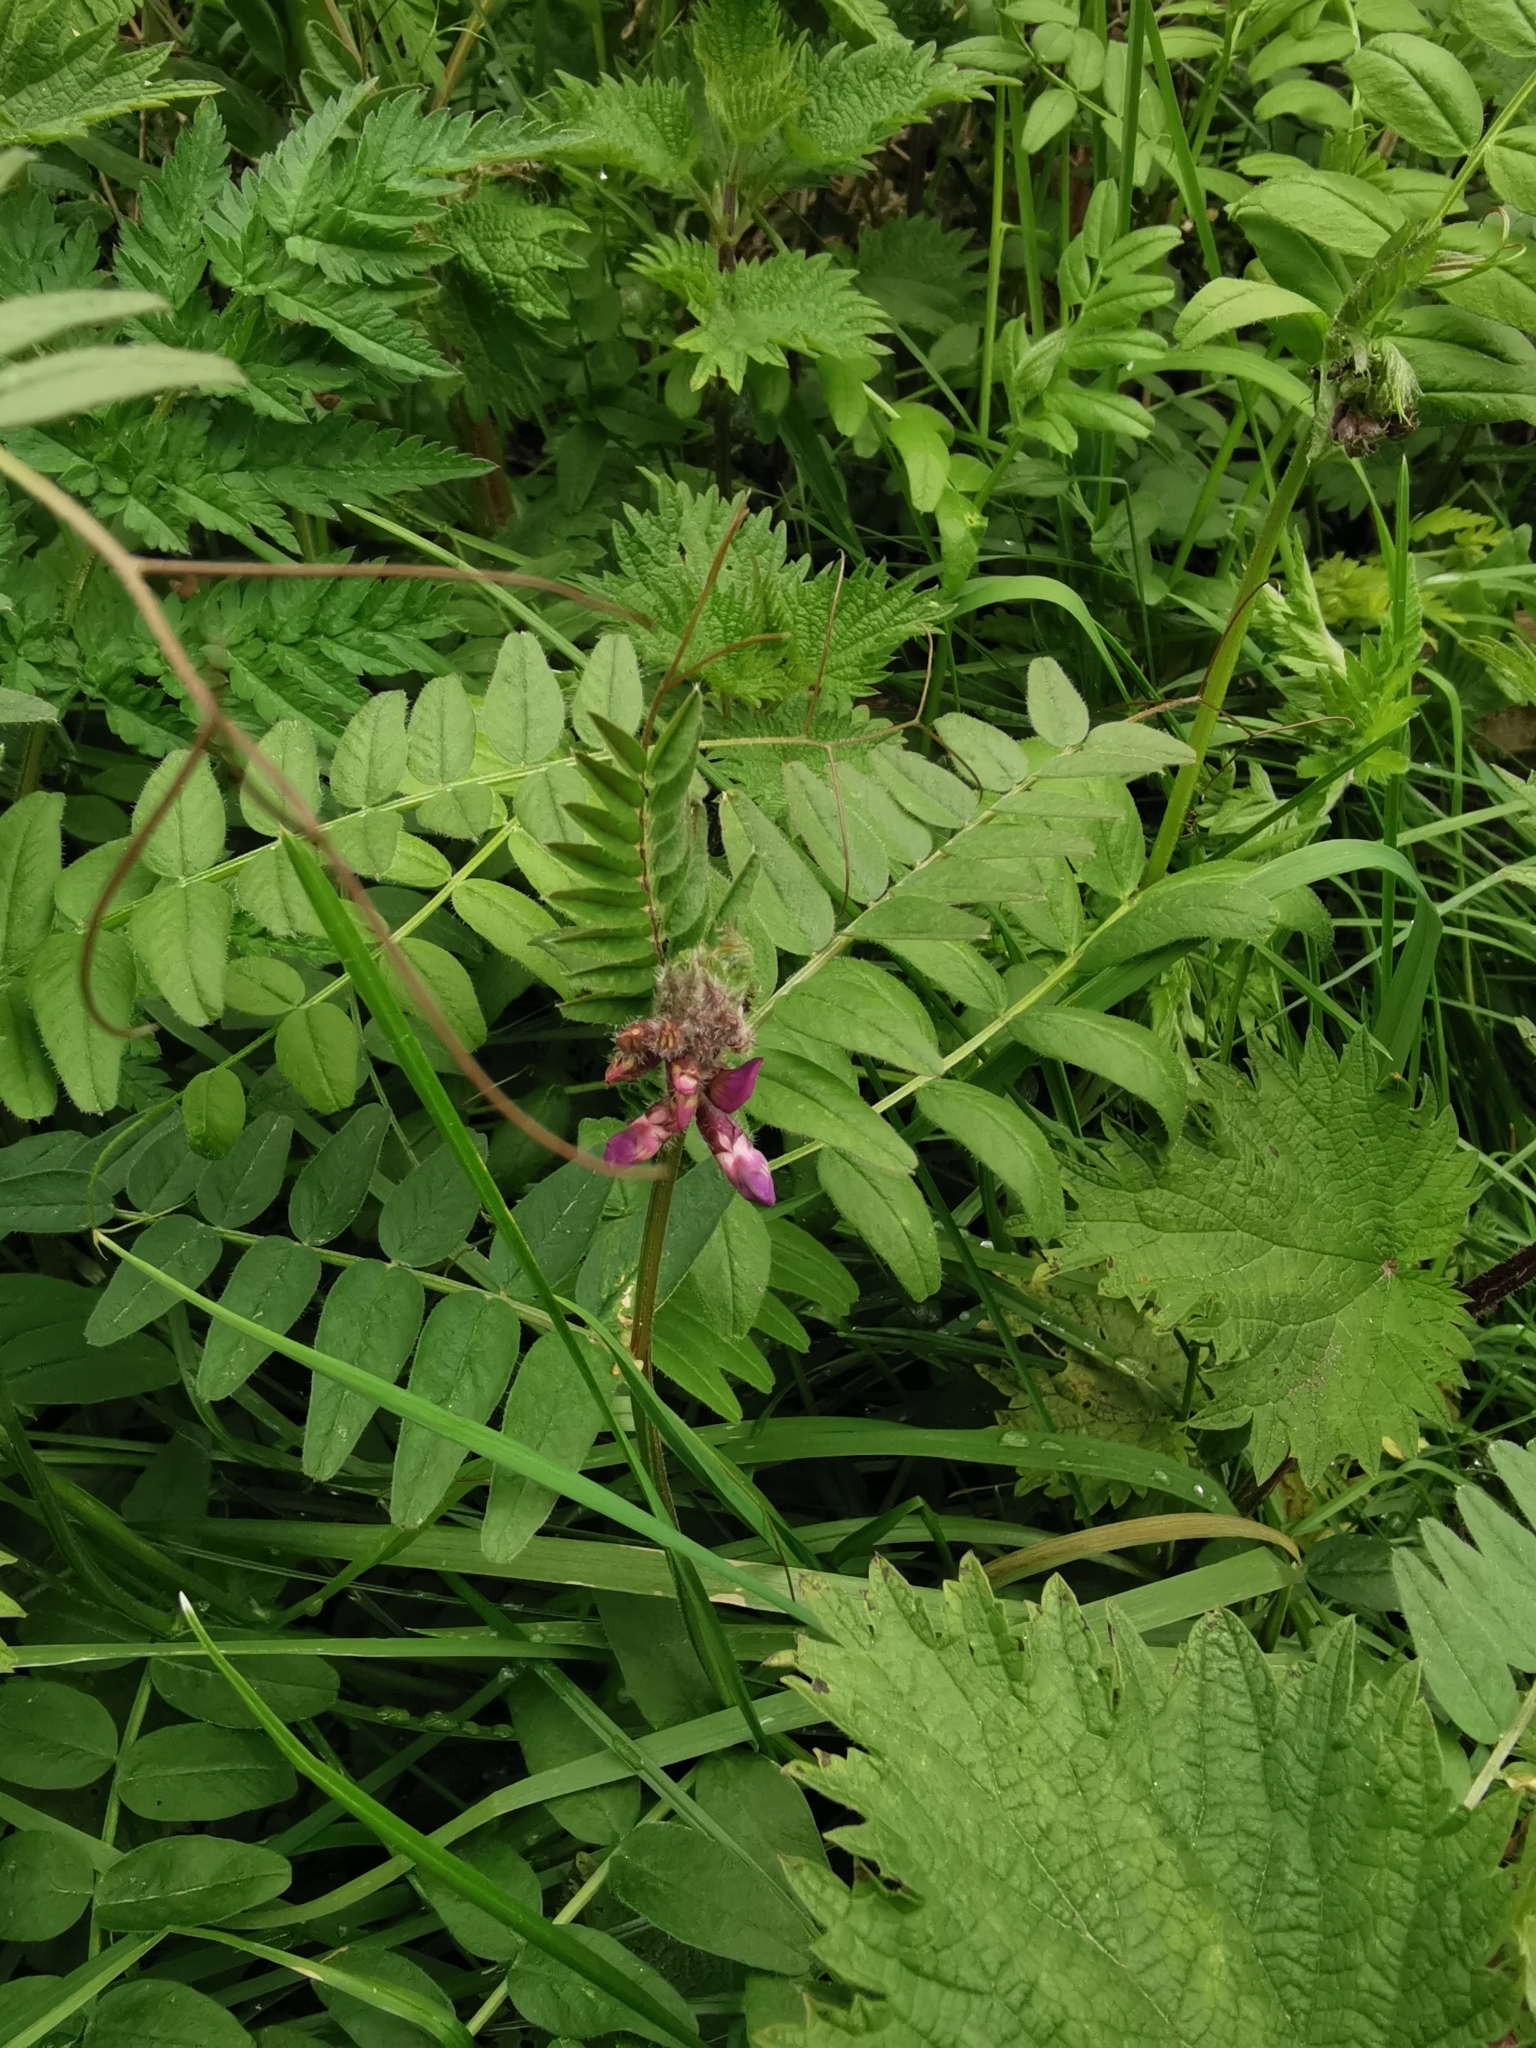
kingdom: Plantae
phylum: Tracheophyta
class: Magnoliopsida
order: Fabales
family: Fabaceae
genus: Vicia
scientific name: Vicia sepium
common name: Bush vetch
